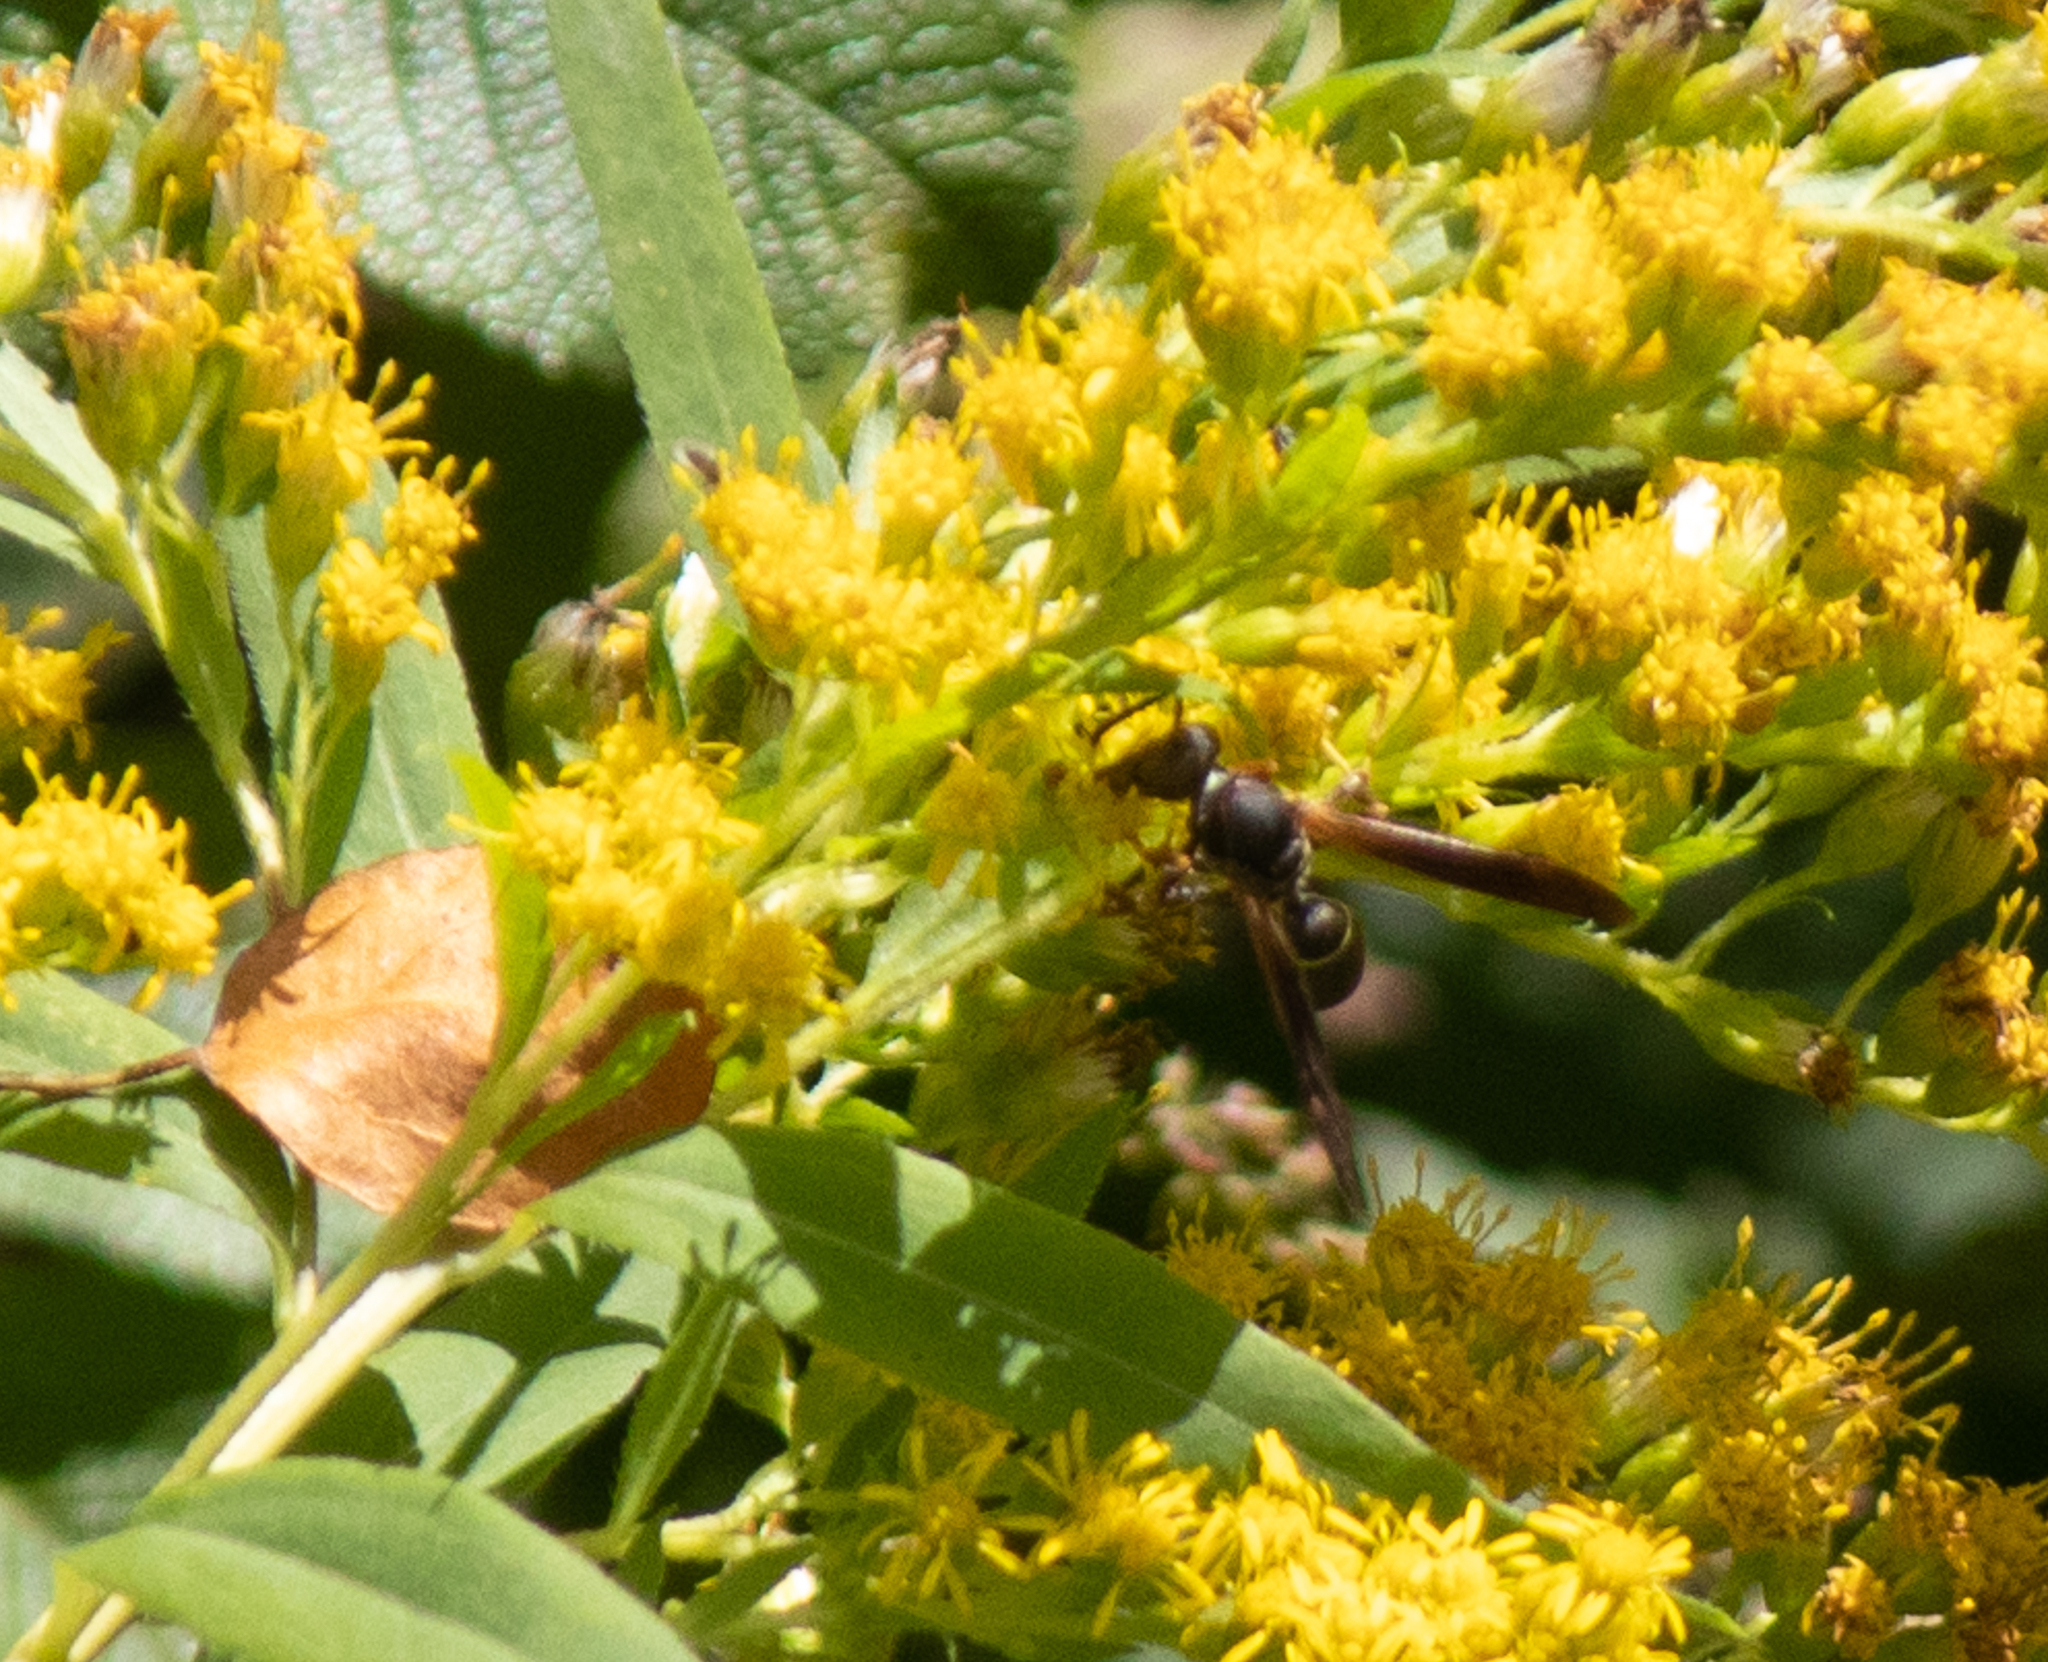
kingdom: Animalia
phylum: Arthropoda
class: Insecta
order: Hymenoptera
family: Eumenidae
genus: Polistes
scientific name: Polistes fuscatus
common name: Dark paper wasp
